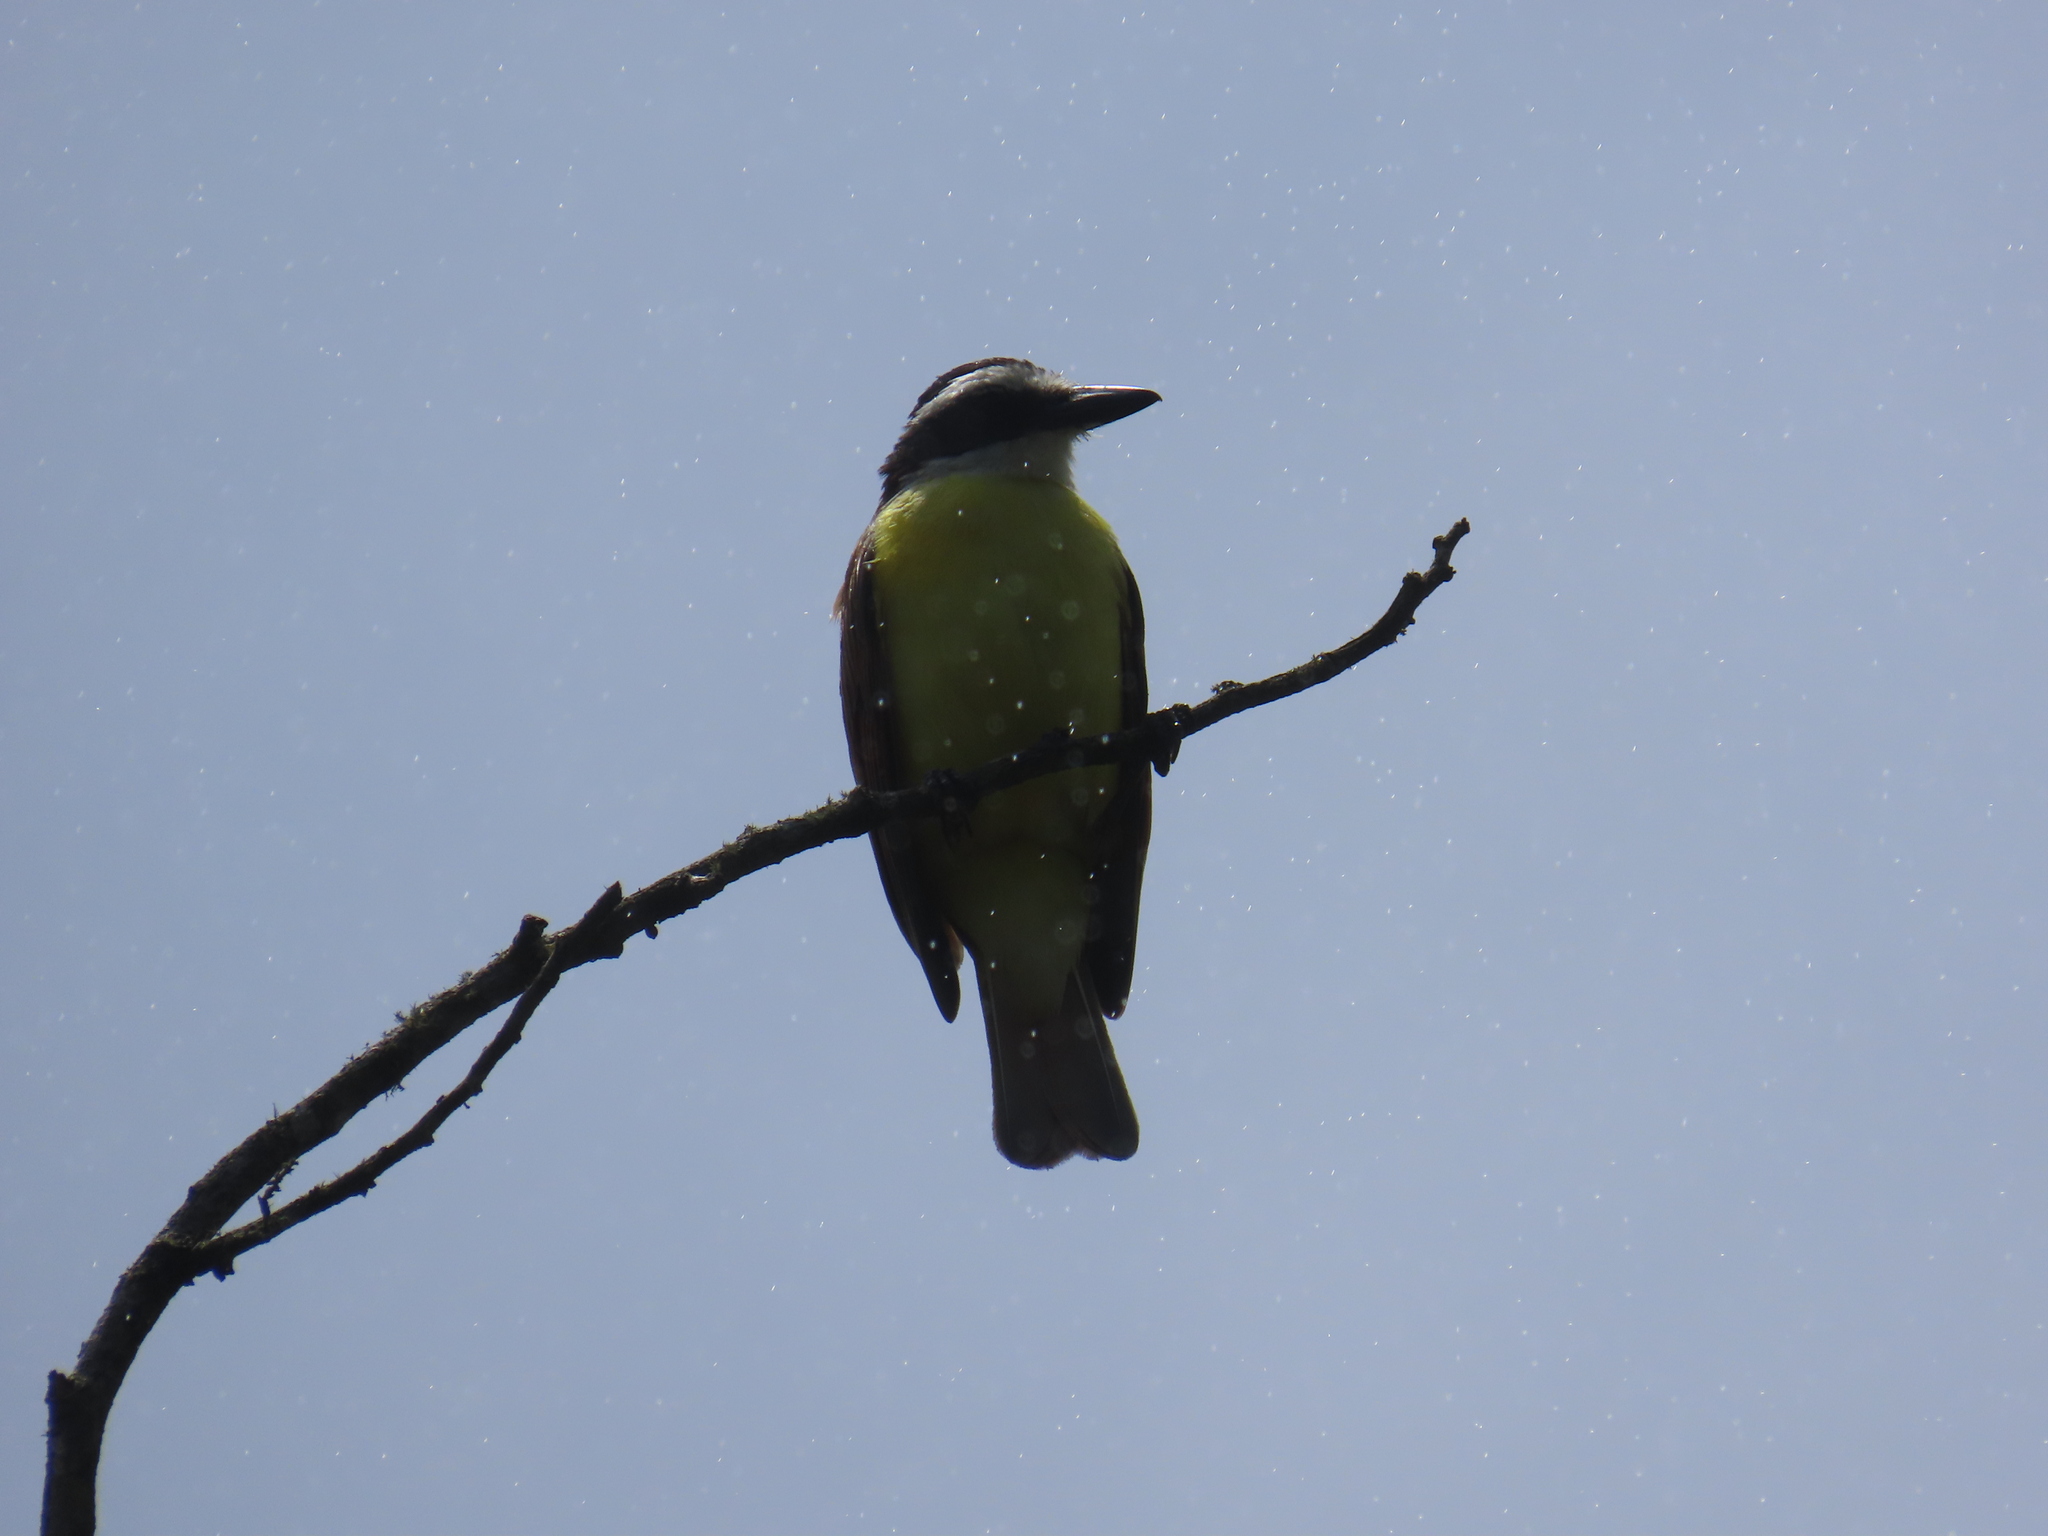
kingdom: Animalia
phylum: Chordata
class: Aves
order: Passeriformes
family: Tyrannidae
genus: Pitangus
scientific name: Pitangus sulphuratus
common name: Great kiskadee
